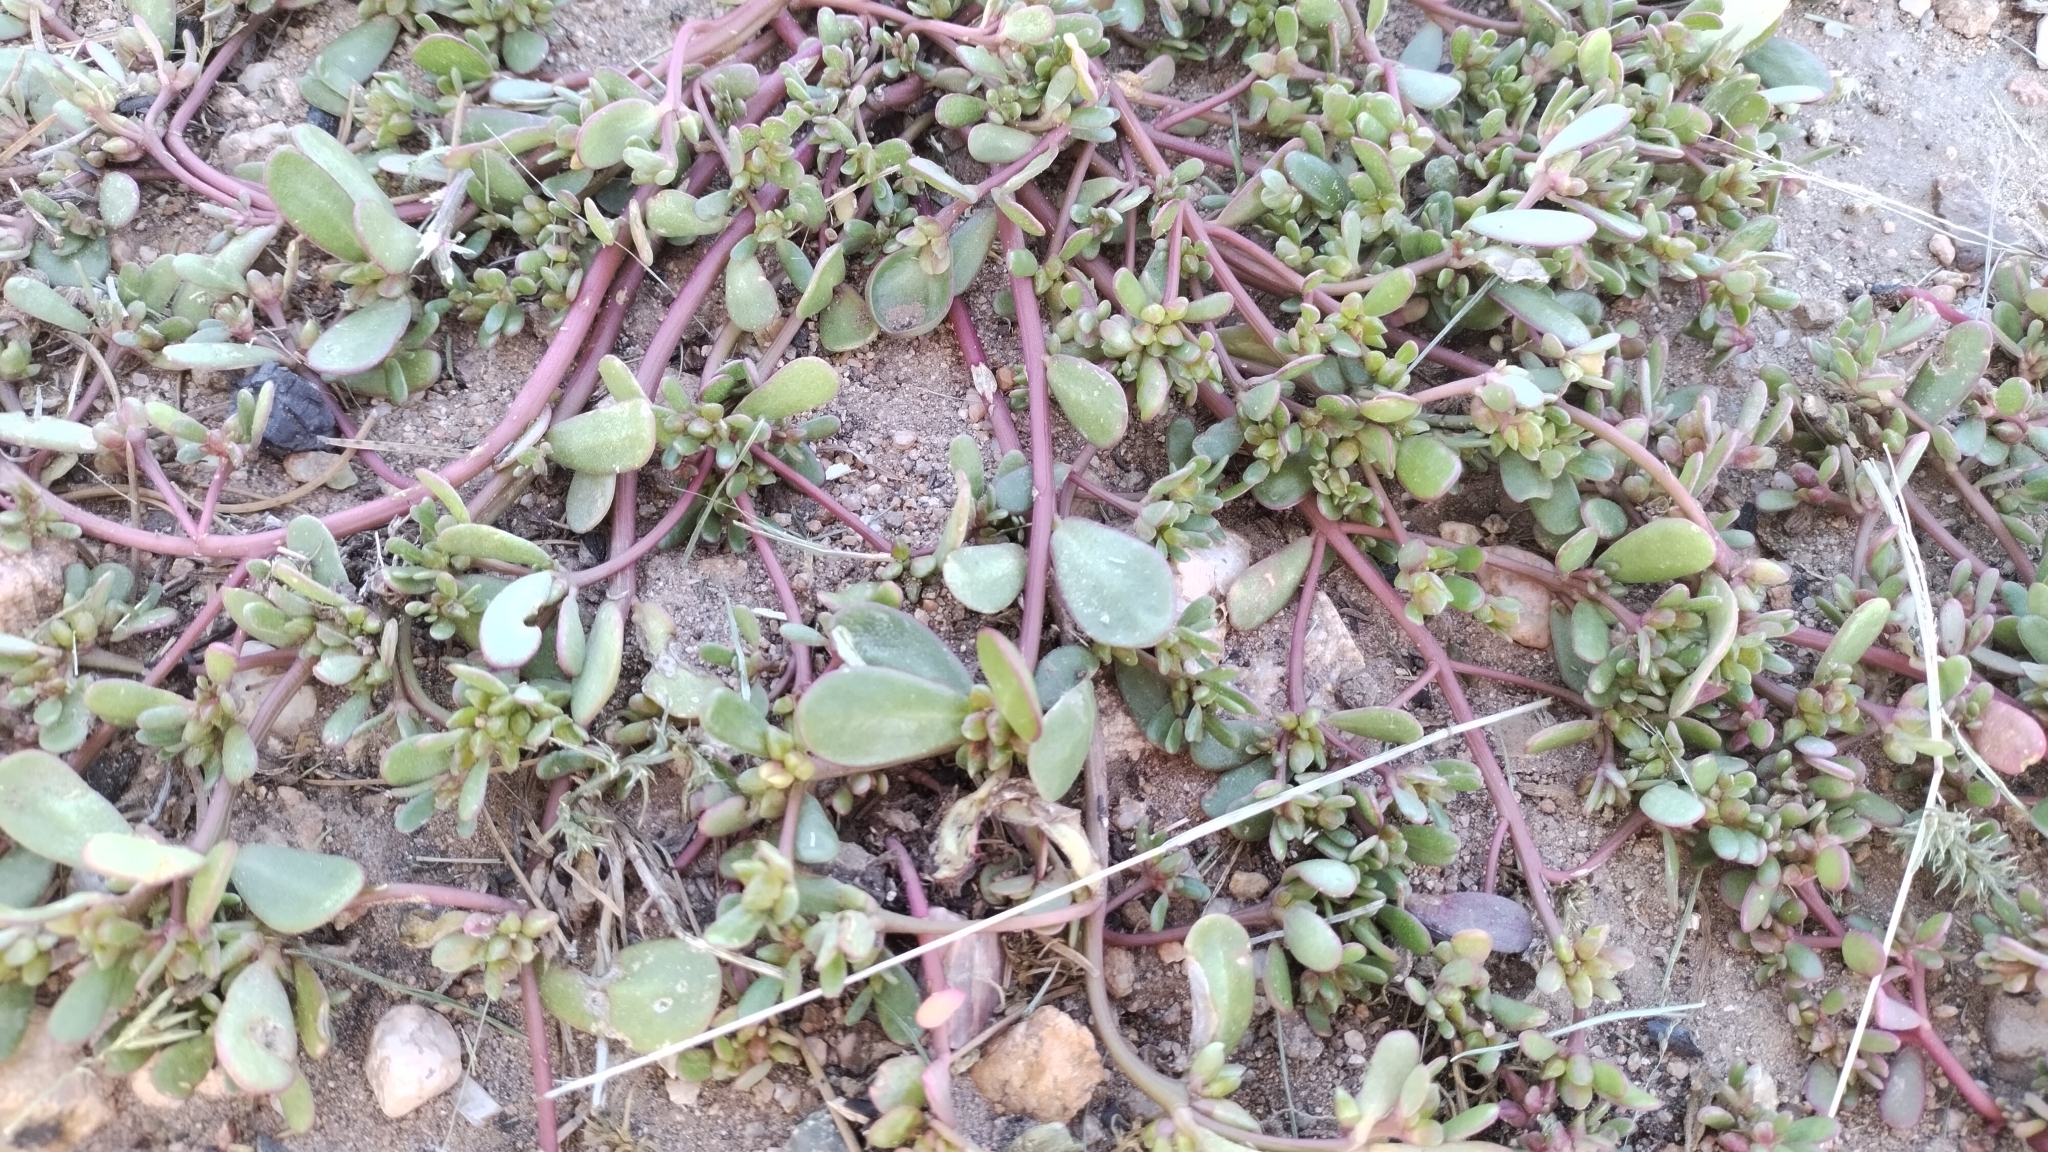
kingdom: Plantae
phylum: Tracheophyta
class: Magnoliopsida
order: Caryophyllales
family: Portulacaceae
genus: Portulaca
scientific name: Portulaca oleracea
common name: Common purslane
